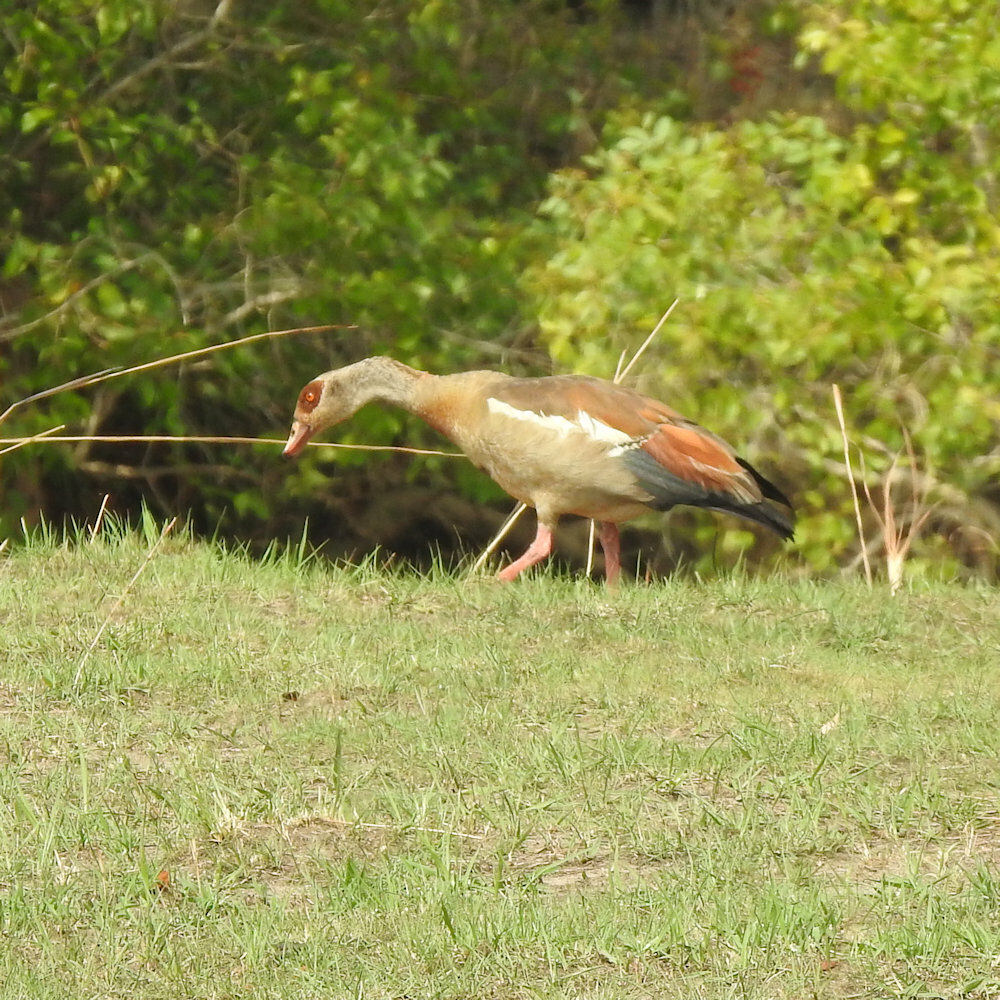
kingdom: Animalia
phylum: Chordata
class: Aves
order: Anseriformes
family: Anatidae
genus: Alopochen
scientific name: Alopochen aegyptiaca
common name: Egyptian goose
